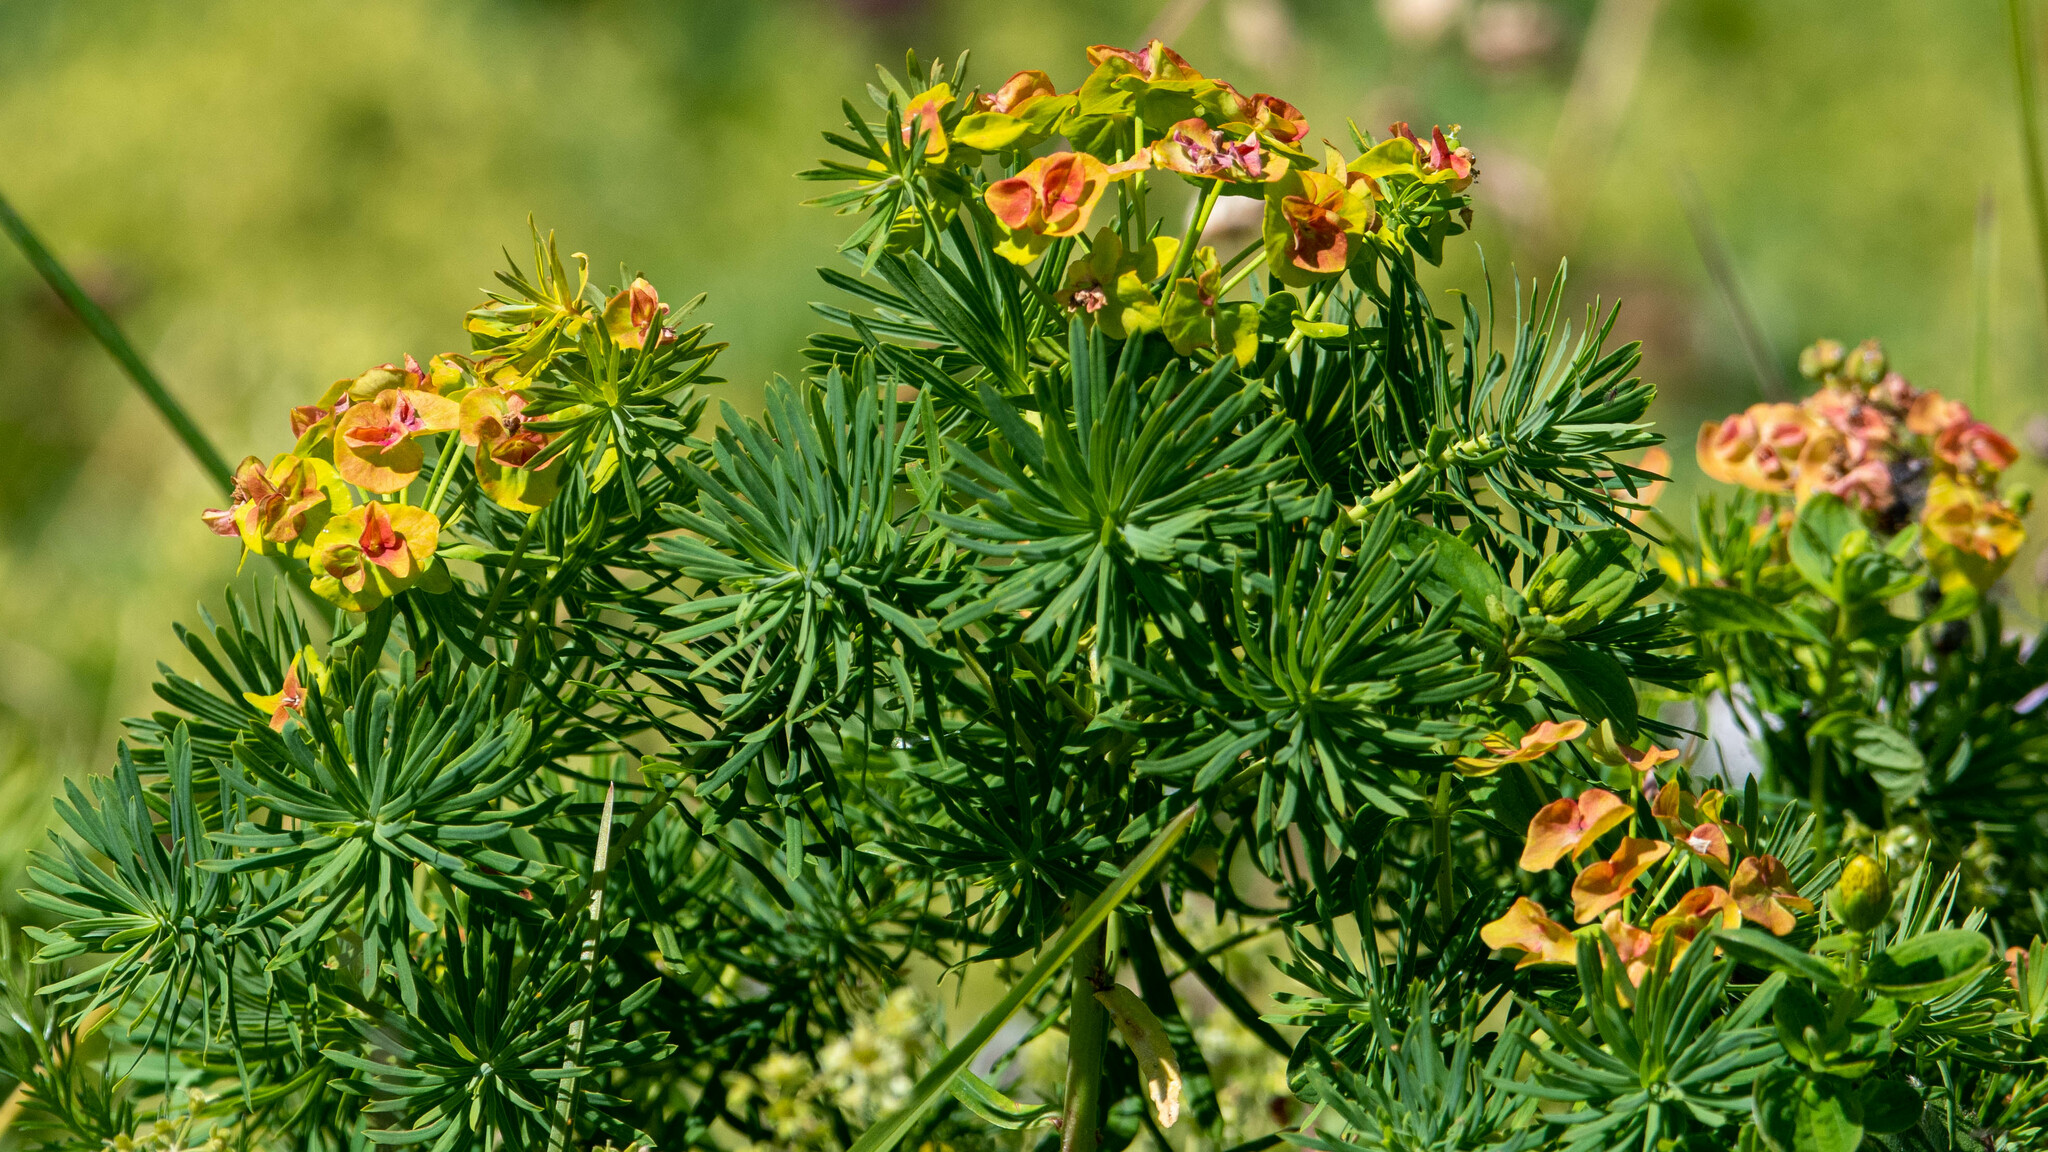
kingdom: Plantae
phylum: Tracheophyta
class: Magnoliopsida
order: Malpighiales
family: Euphorbiaceae
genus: Euphorbia
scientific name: Euphorbia cyparissias
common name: Cypress spurge
